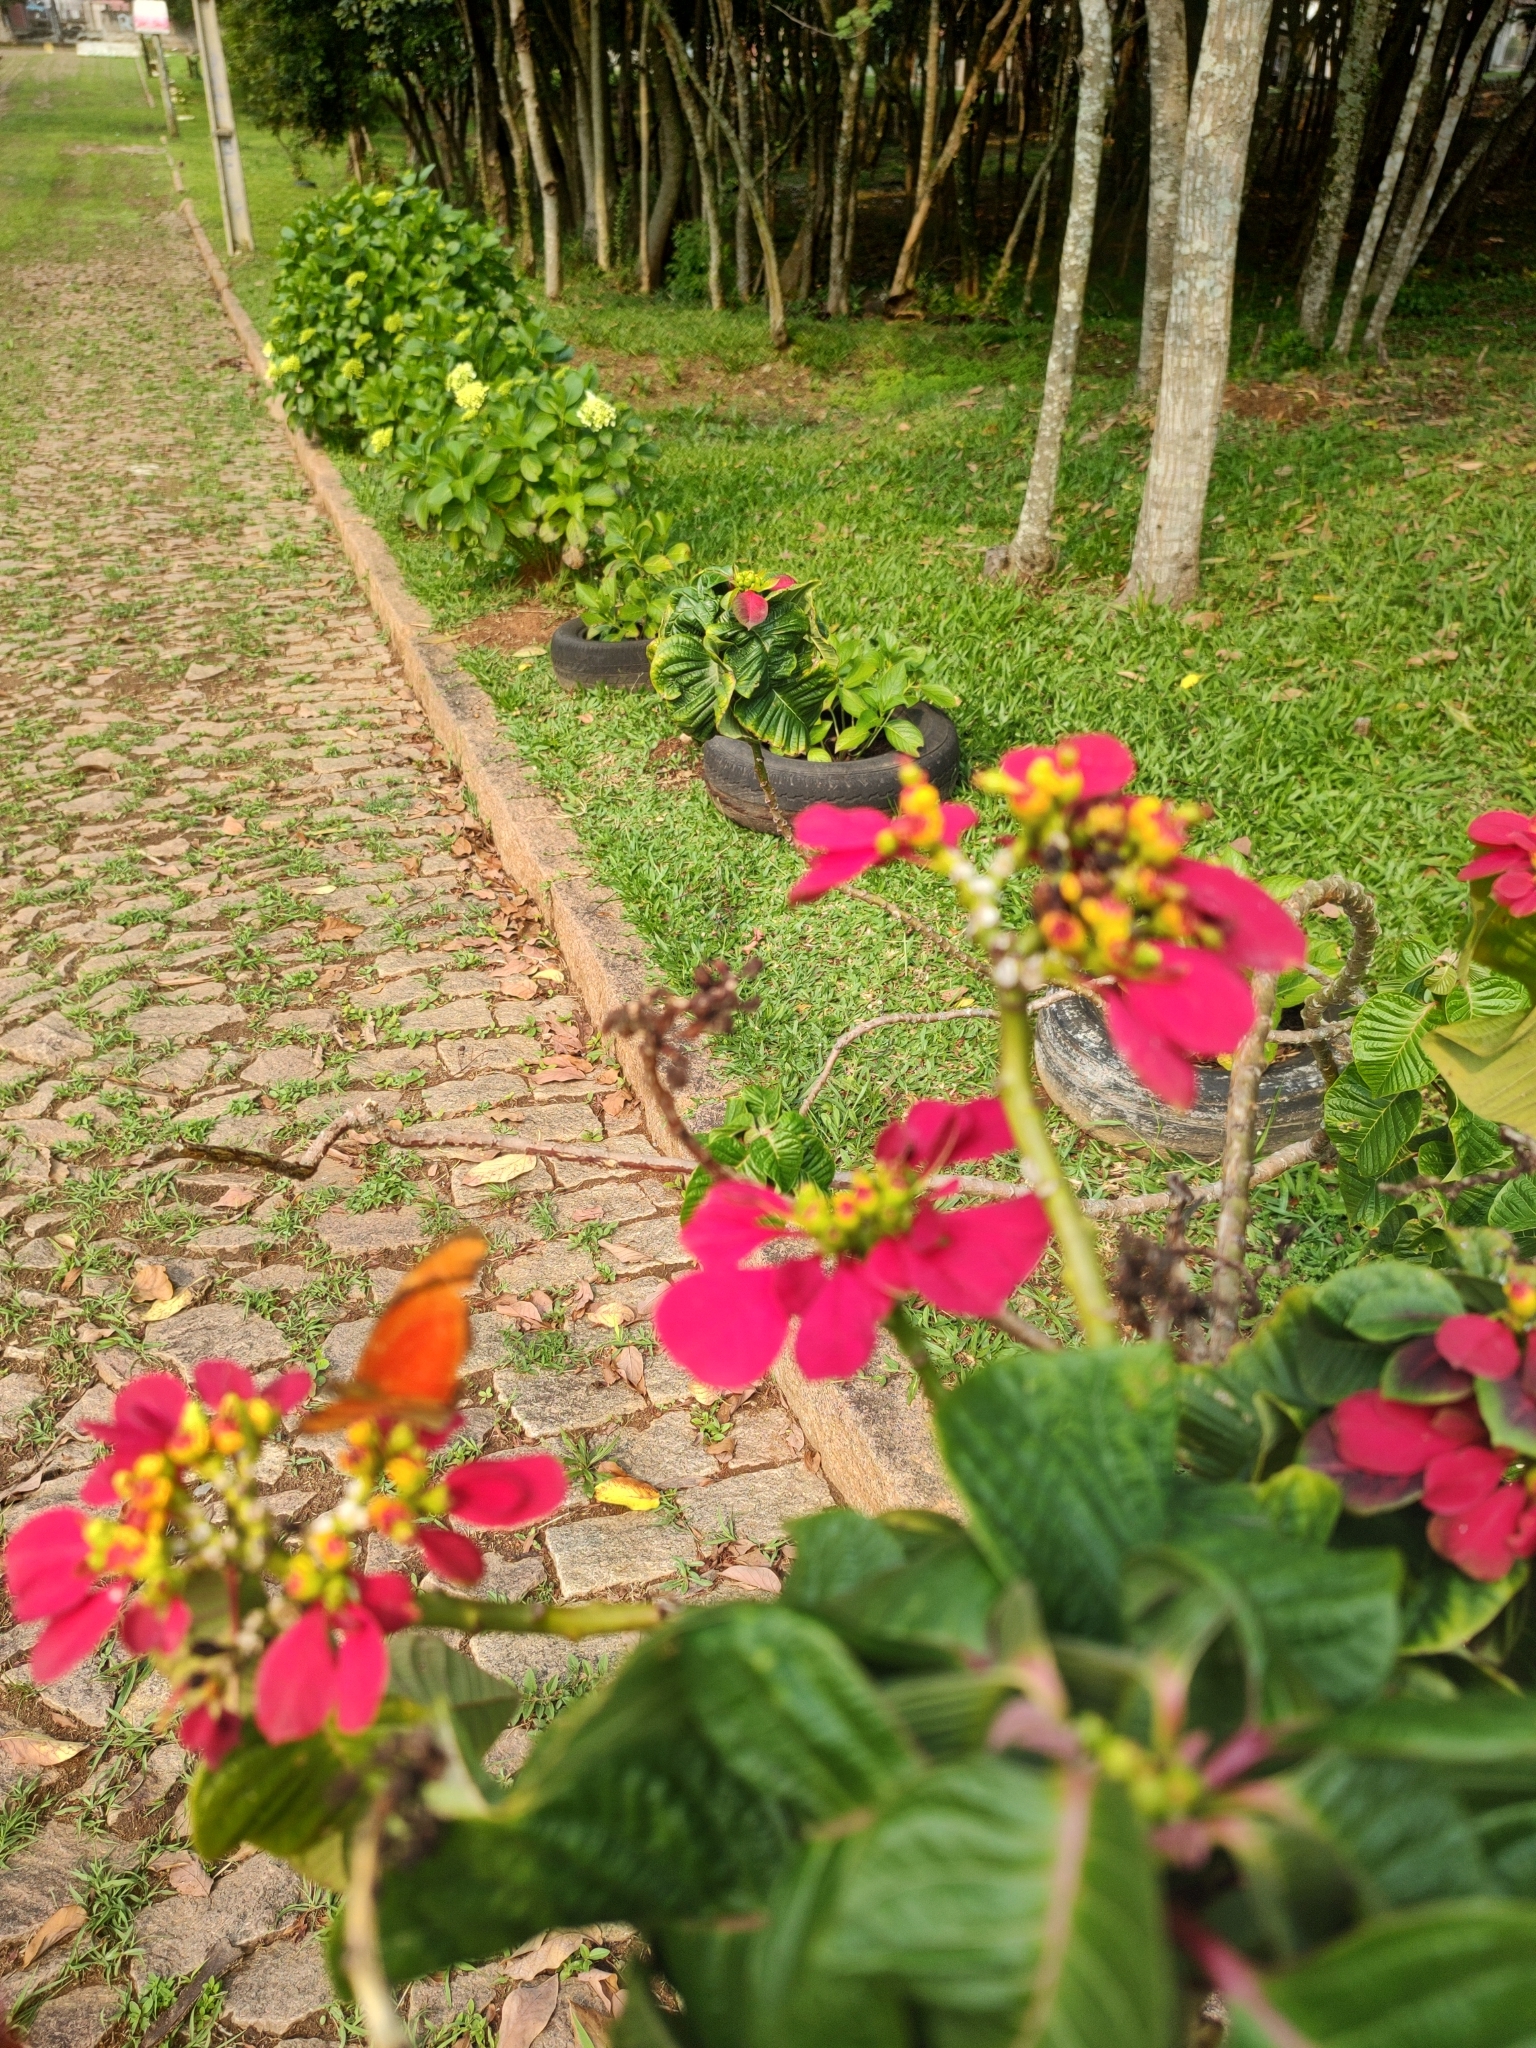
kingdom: Animalia
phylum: Arthropoda
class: Insecta
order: Lepidoptera
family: Nymphalidae
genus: Dryas
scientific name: Dryas iulia
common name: Flambeau
